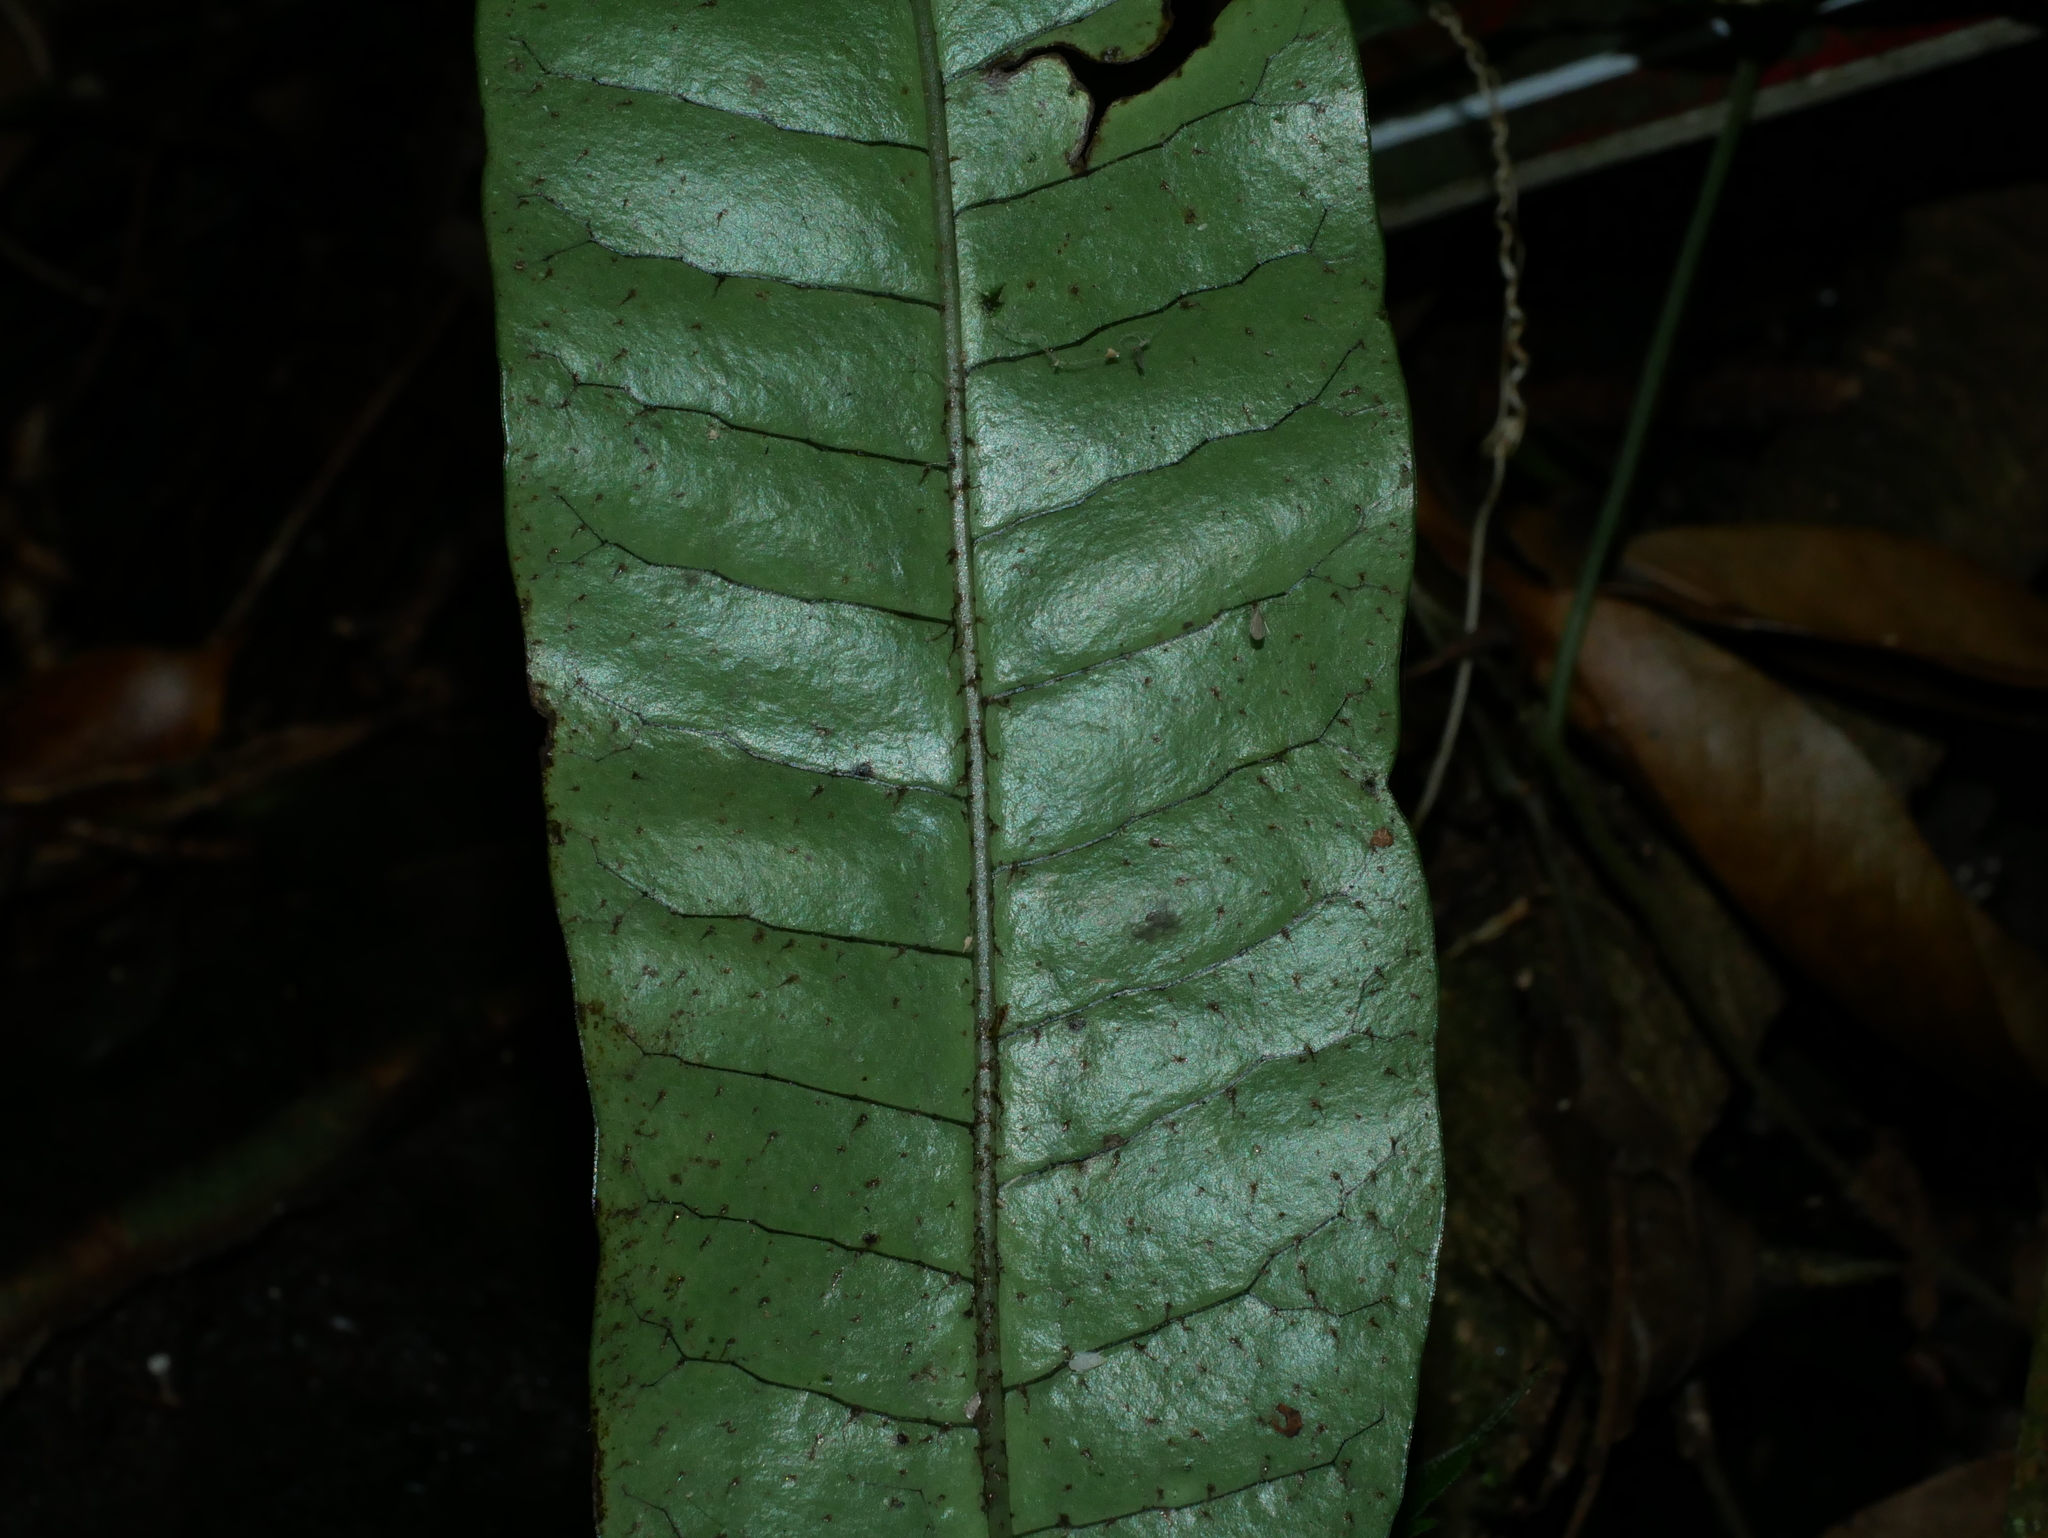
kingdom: Plantae
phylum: Tracheophyta
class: Polypodiopsida
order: Polypodiales
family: Polypodiaceae
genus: Lepisorus
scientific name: Lepisorus ensatus
